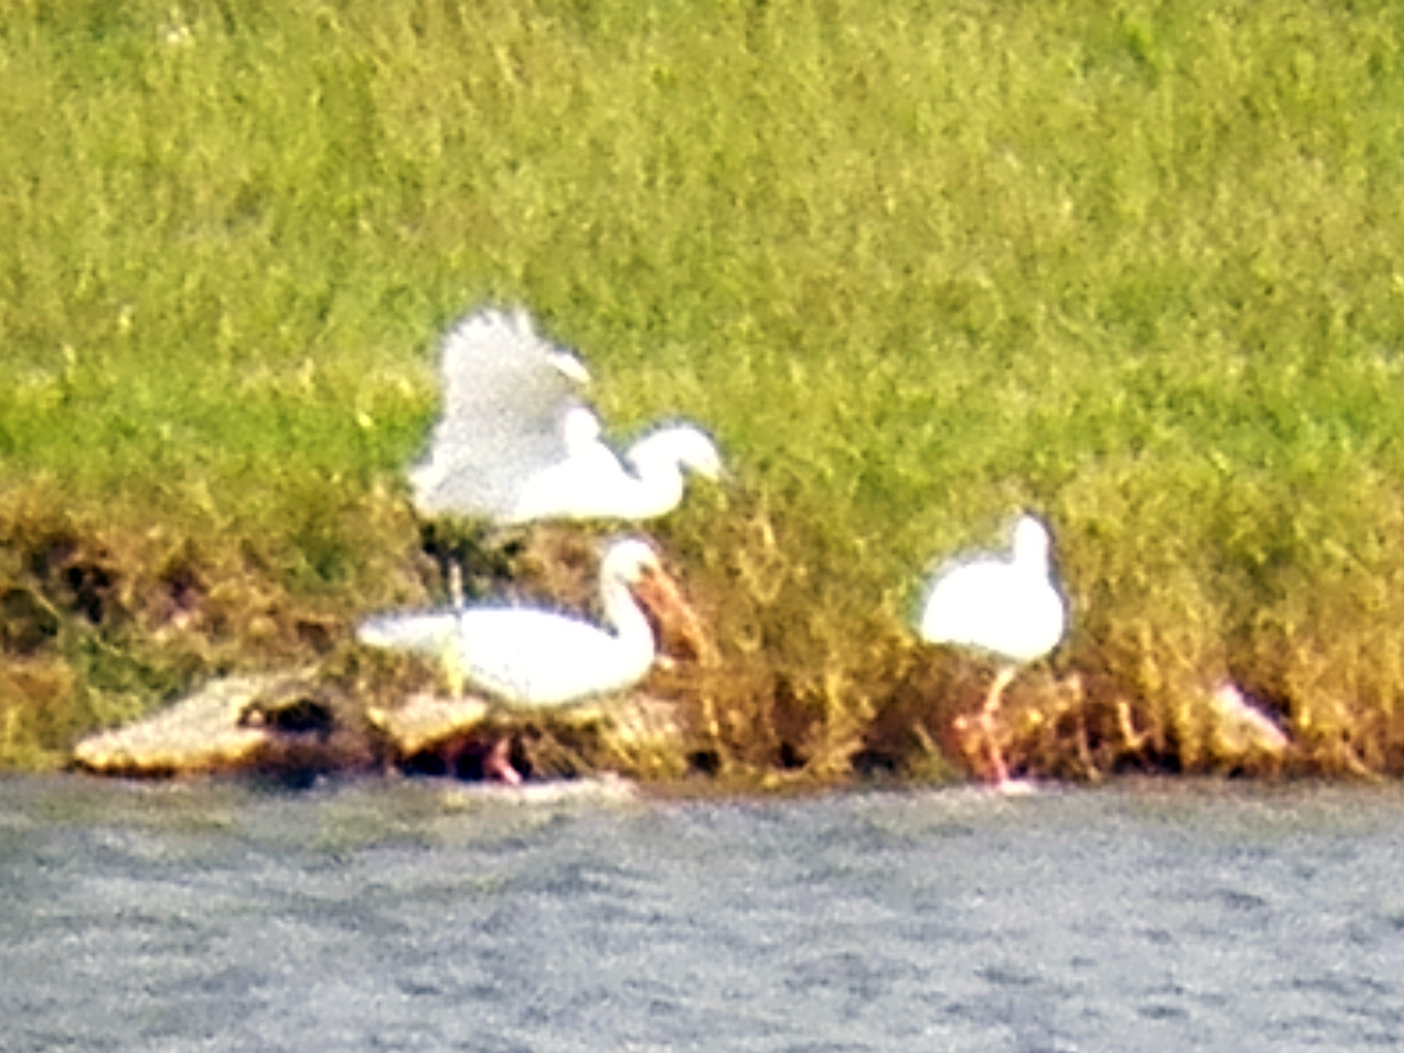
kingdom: Animalia
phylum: Chordata
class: Aves
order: Pelecaniformes
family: Threskiornithidae
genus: Eudocimus
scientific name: Eudocimus albus
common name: White ibis
